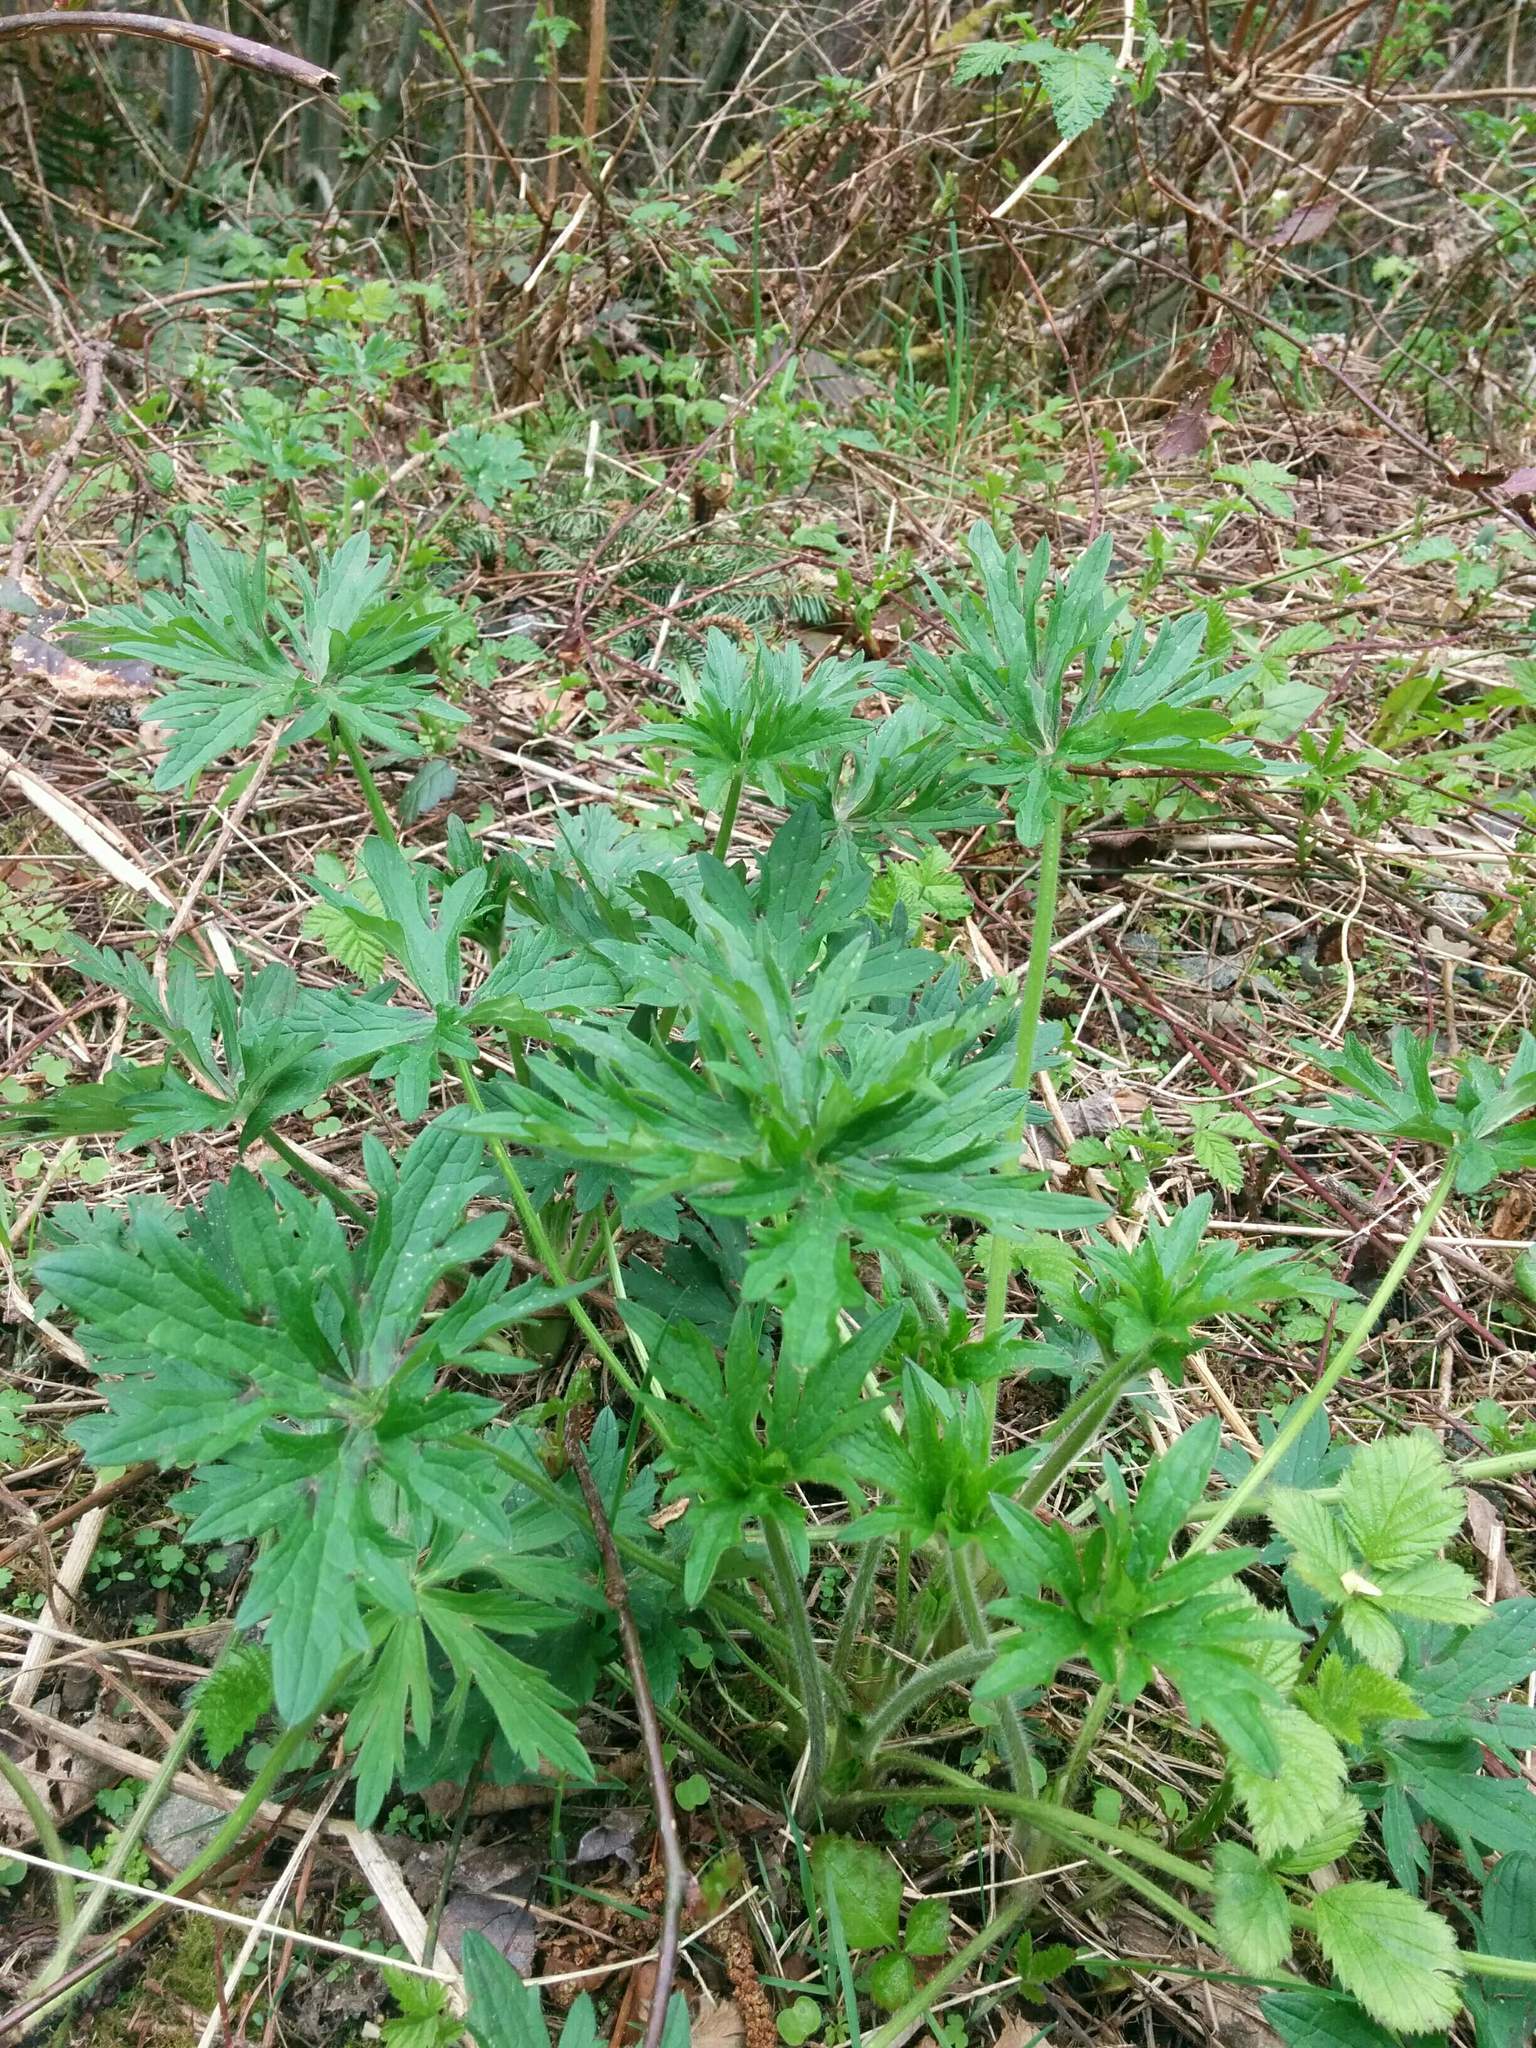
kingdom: Plantae
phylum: Tracheophyta
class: Magnoliopsida
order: Ranunculales
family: Ranunculaceae
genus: Ranunculus
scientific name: Ranunculus acris
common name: Meadow buttercup
